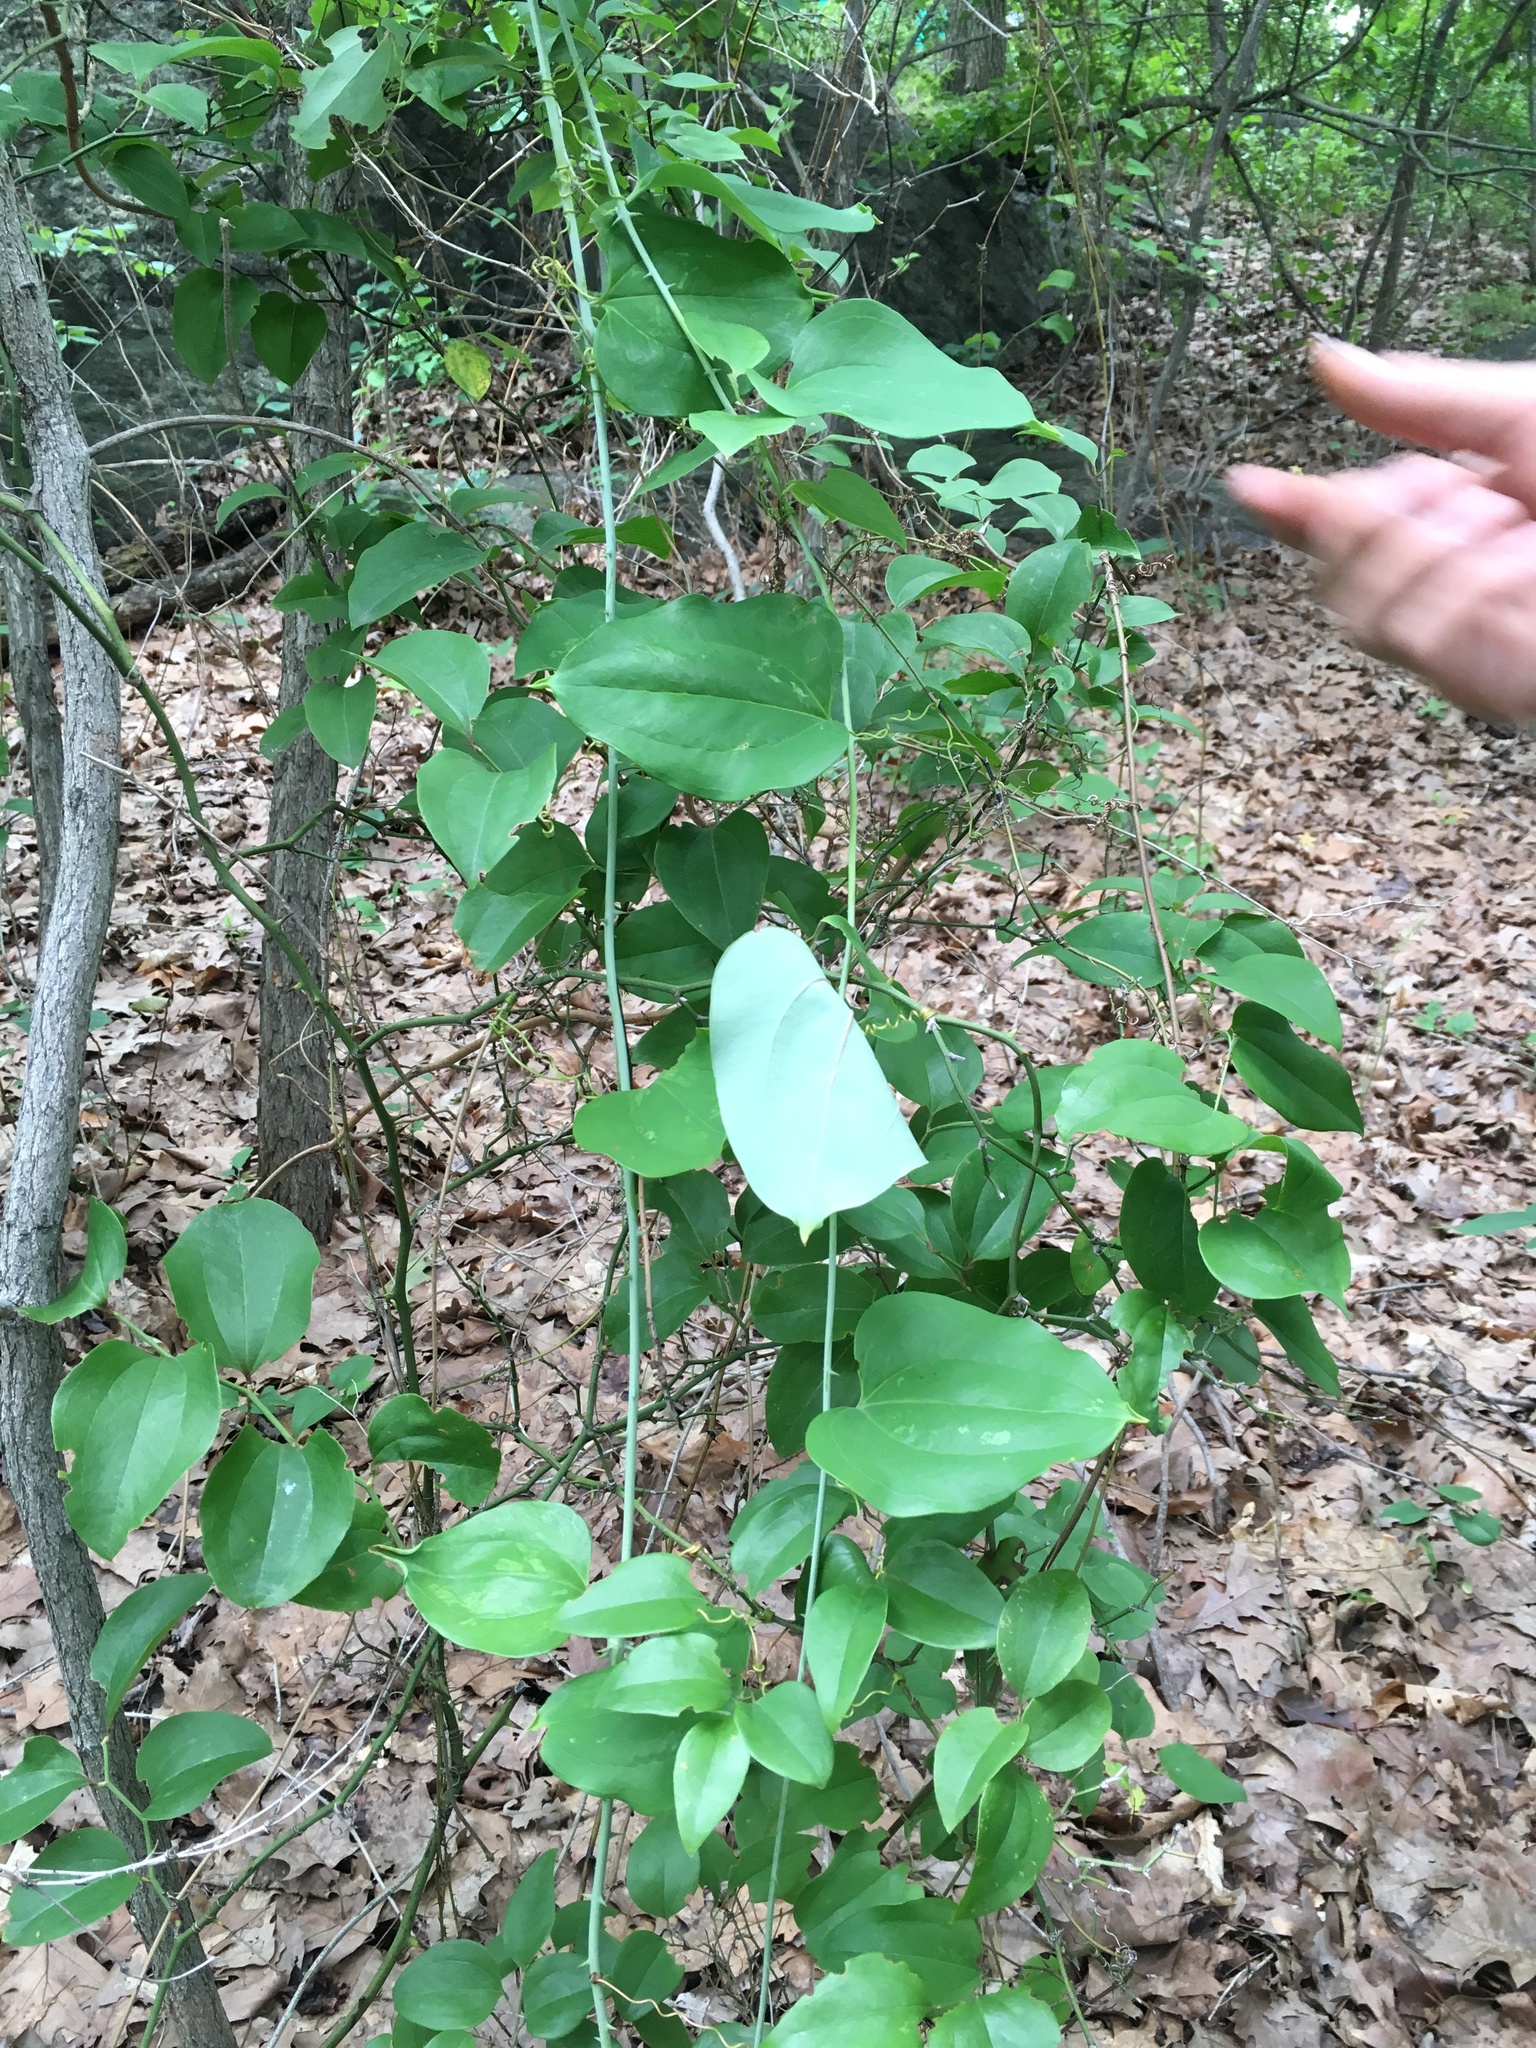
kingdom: Plantae
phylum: Tracheophyta
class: Liliopsida
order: Liliales
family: Smilacaceae
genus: Smilax
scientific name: Smilax glauca
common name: Cat greenbrier
